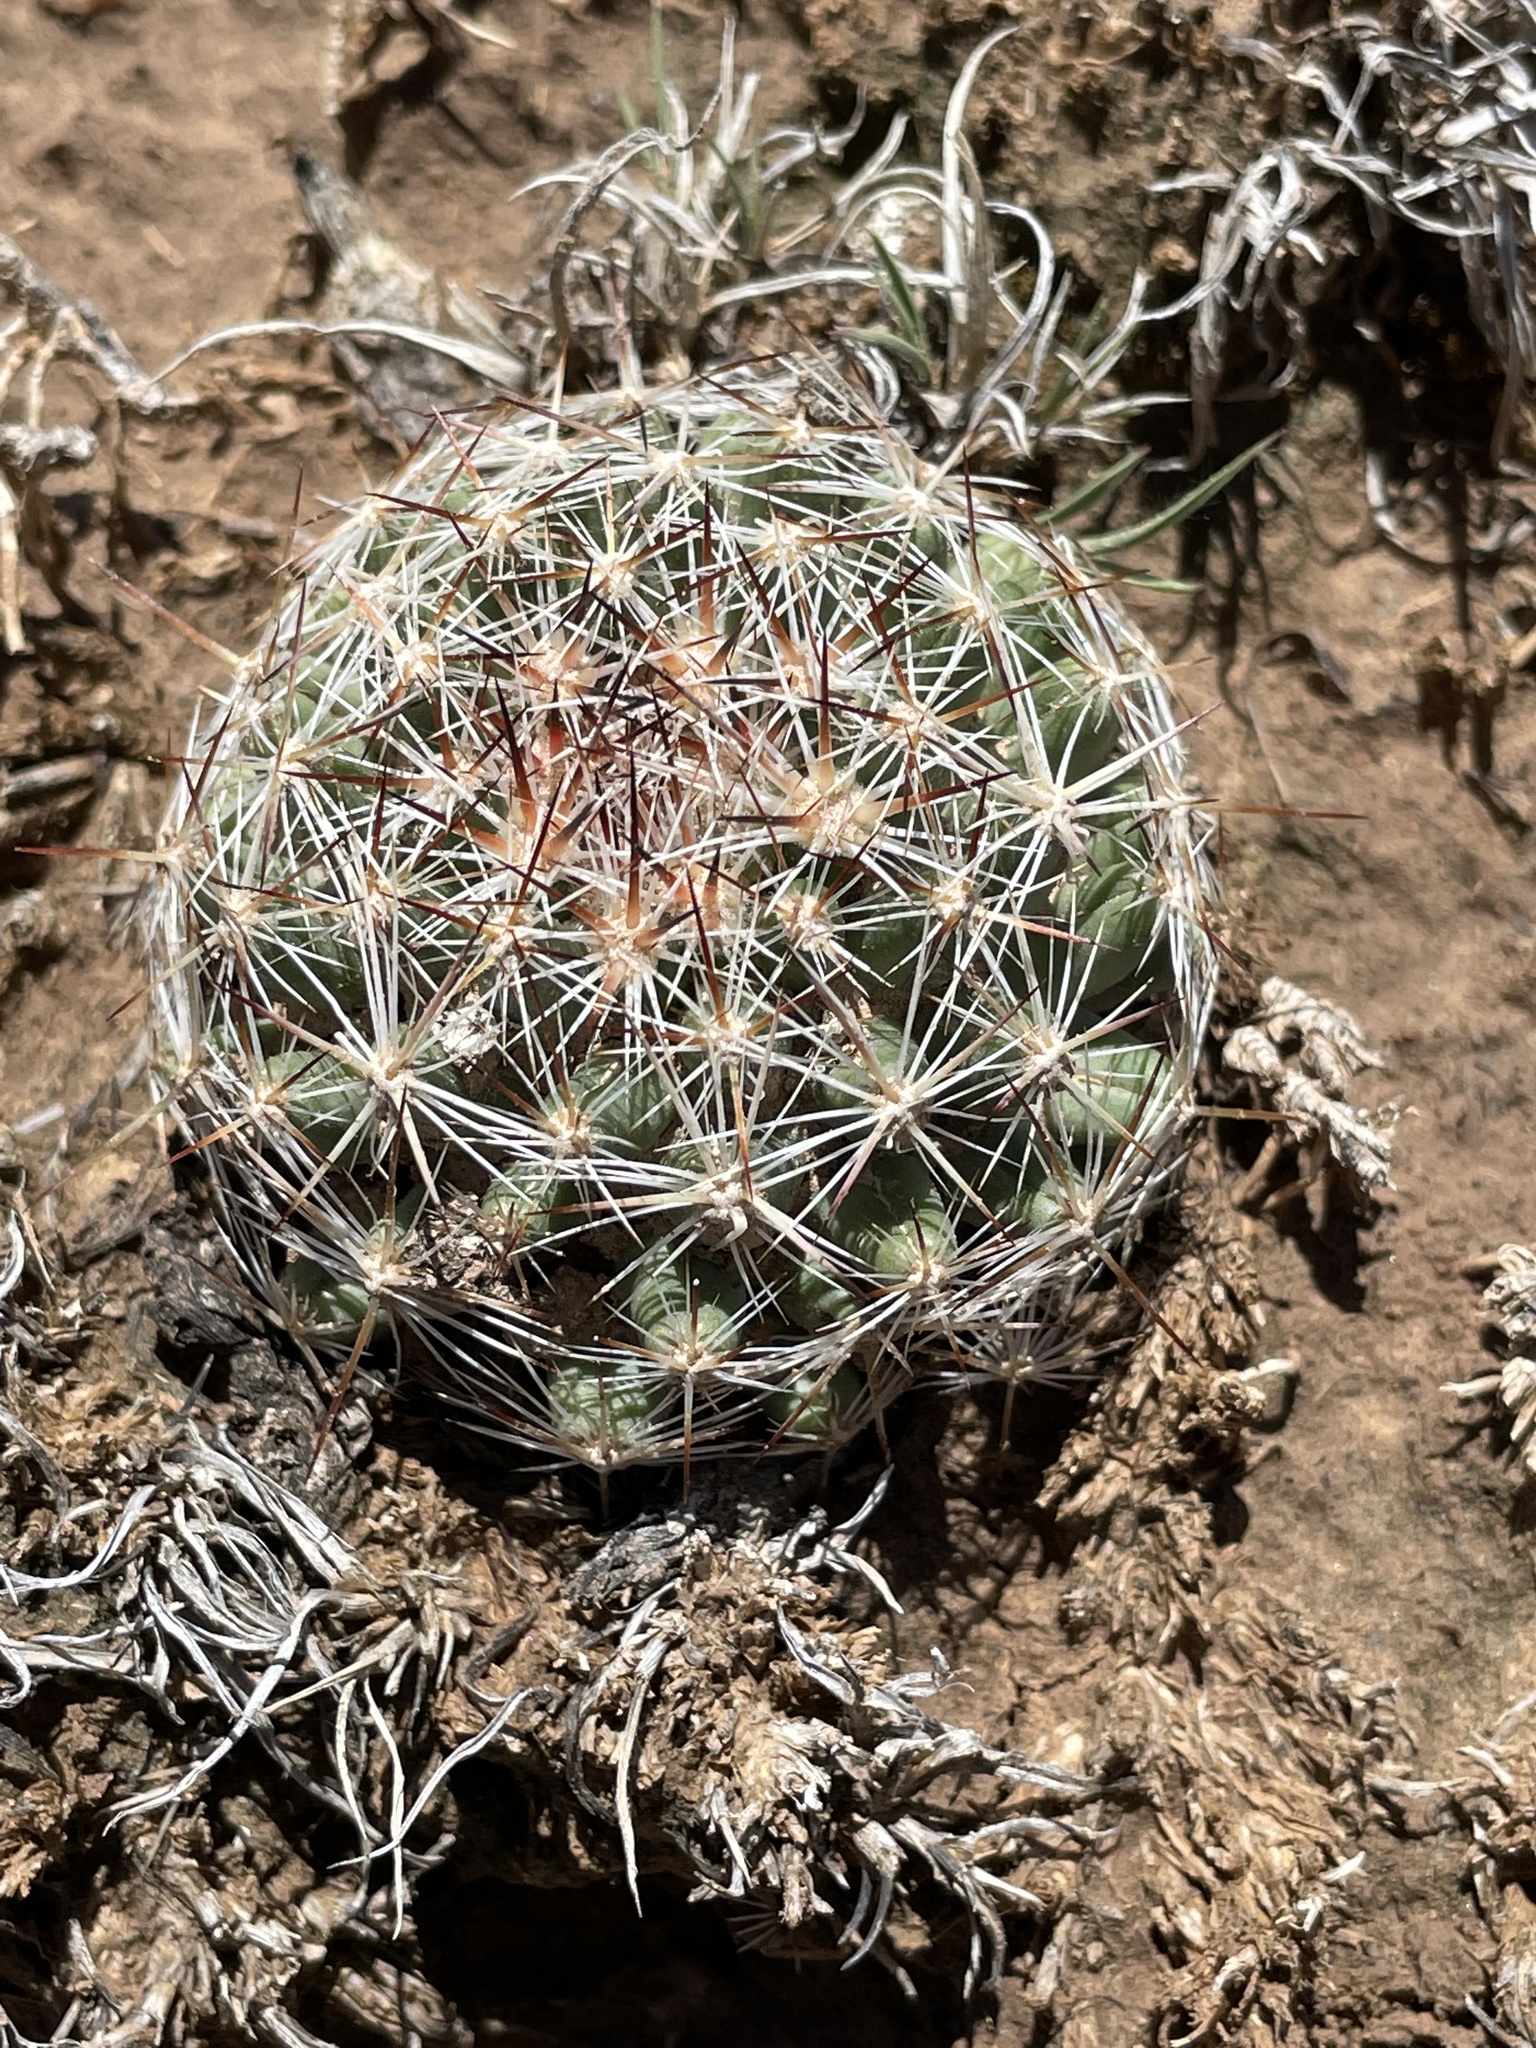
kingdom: Plantae
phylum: Tracheophyta
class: Magnoliopsida
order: Caryophyllales
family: Cactaceae
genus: Pelecyphora
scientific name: Pelecyphora vivipara
